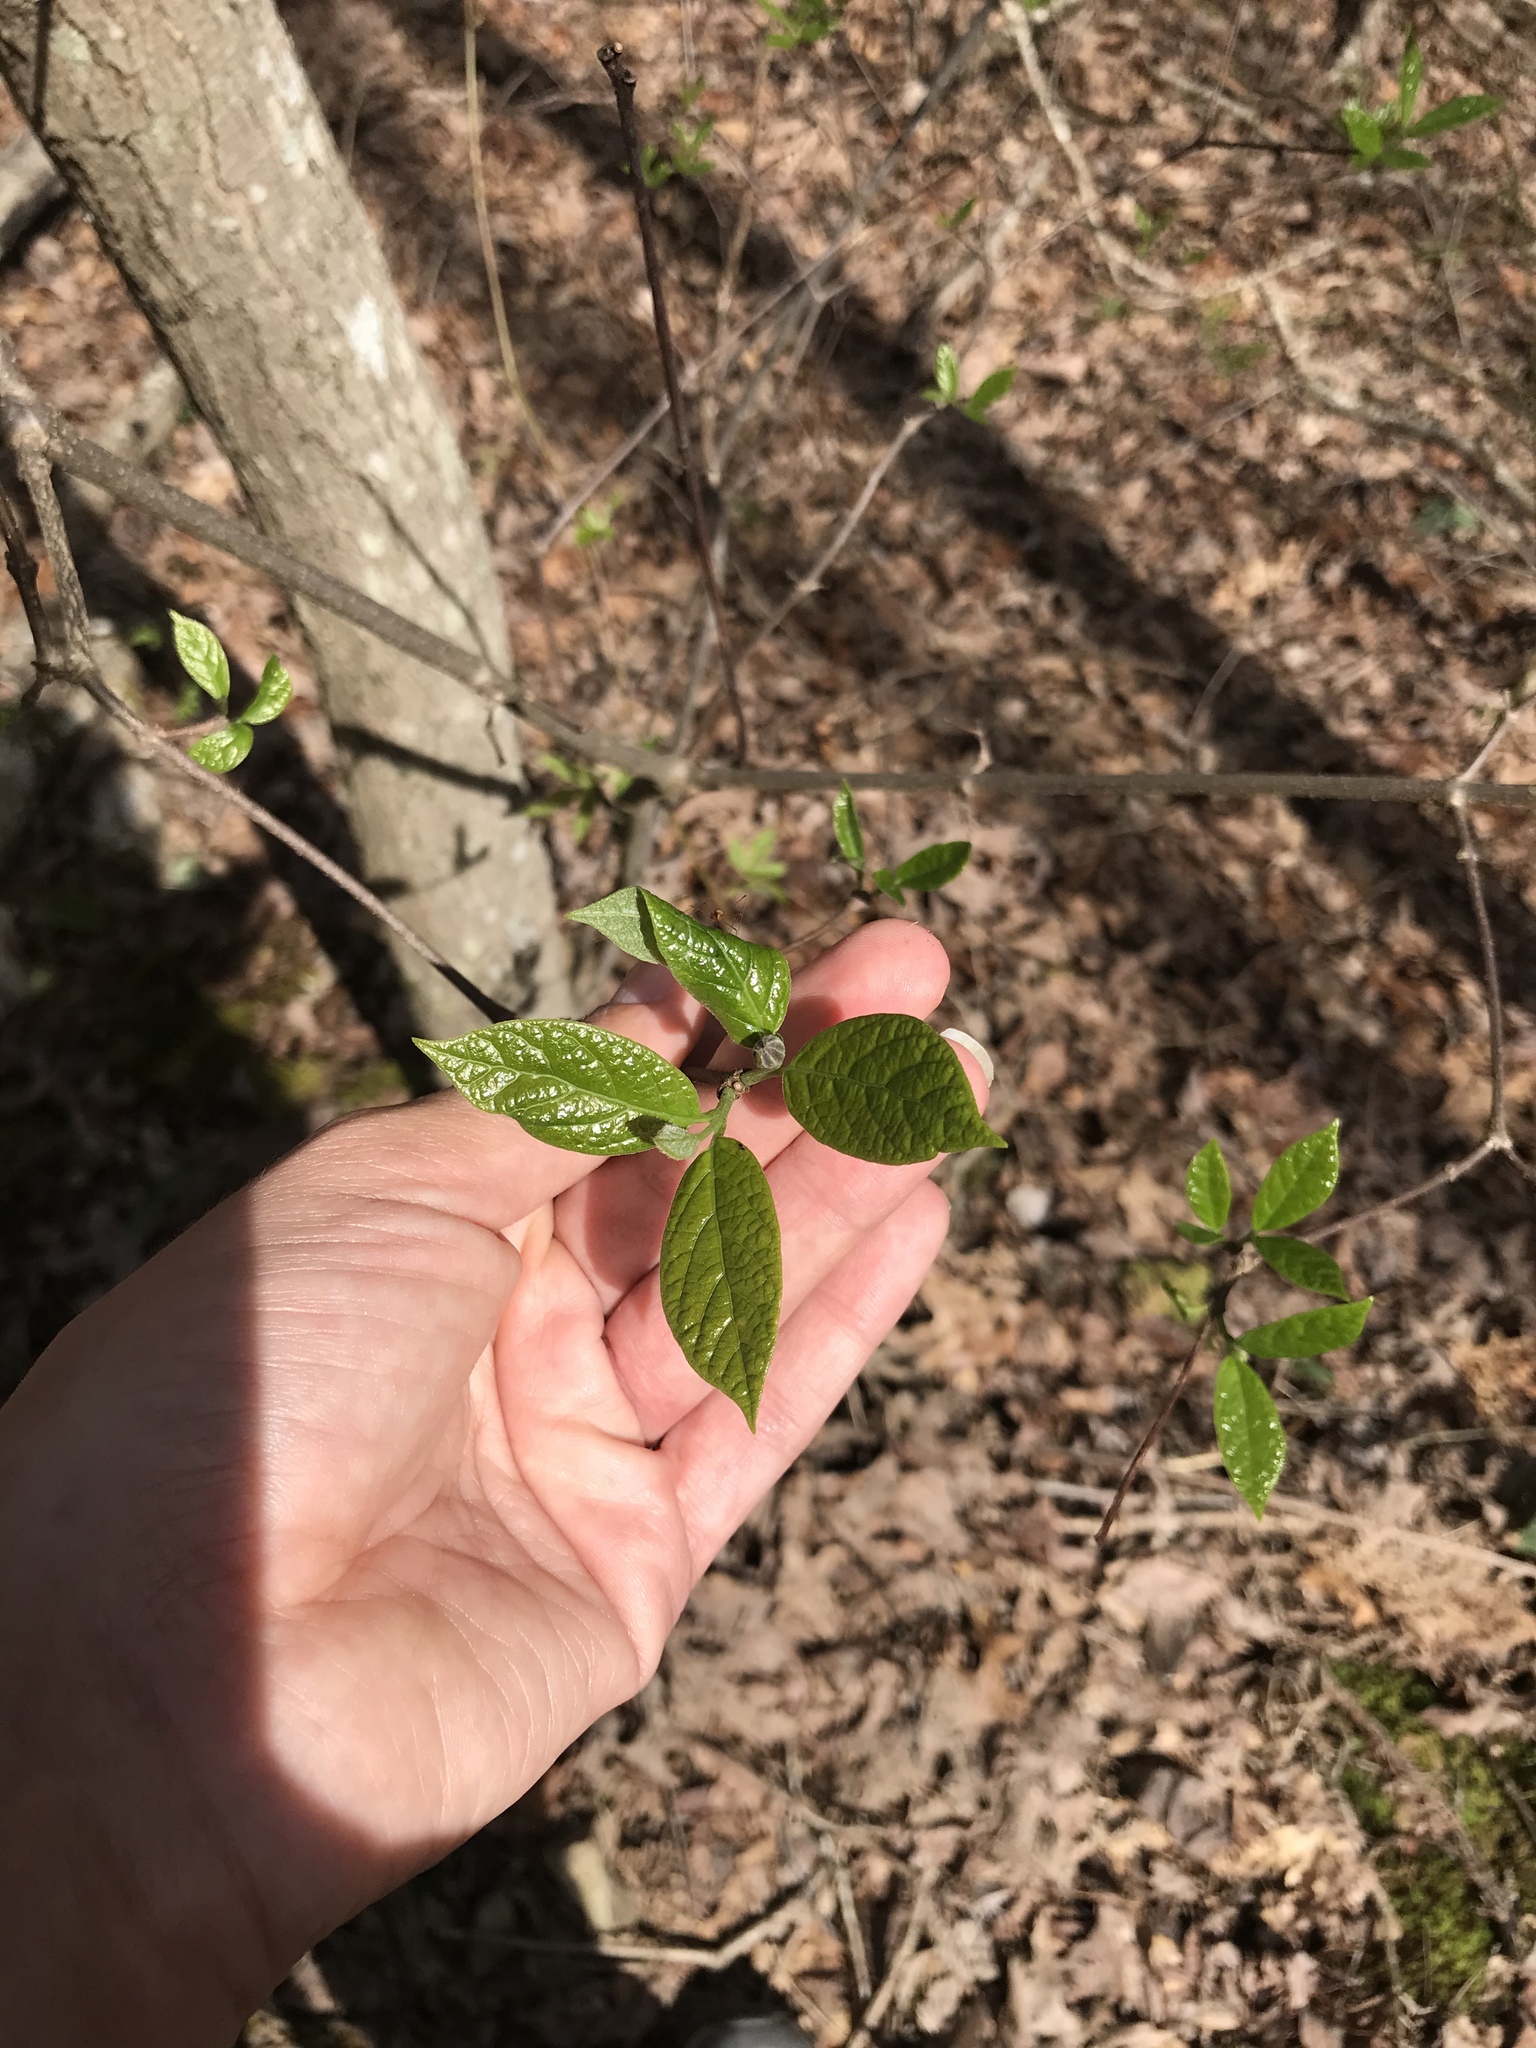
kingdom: Plantae
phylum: Tracheophyta
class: Magnoliopsida
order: Laurales
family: Calycanthaceae
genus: Calycanthus
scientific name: Calycanthus floridus
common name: Carolina-allspice
